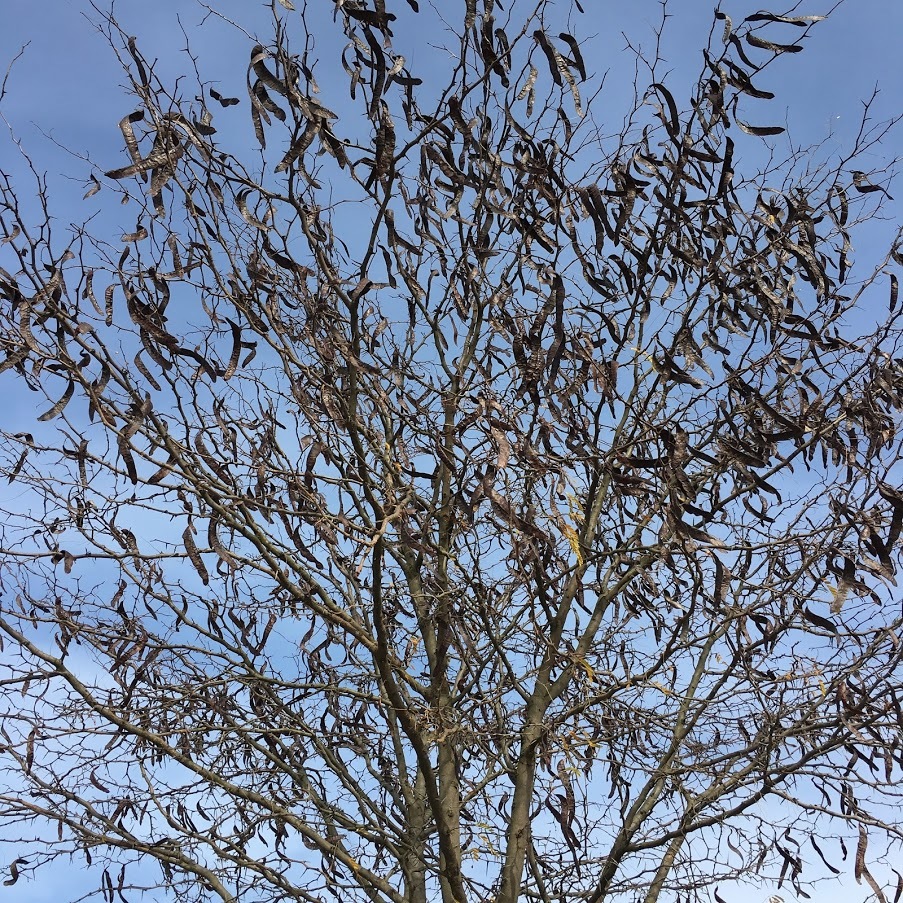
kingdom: Plantae
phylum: Tracheophyta
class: Magnoliopsida
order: Fabales
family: Fabaceae
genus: Gleditsia
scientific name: Gleditsia triacanthos
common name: Common honeylocust
